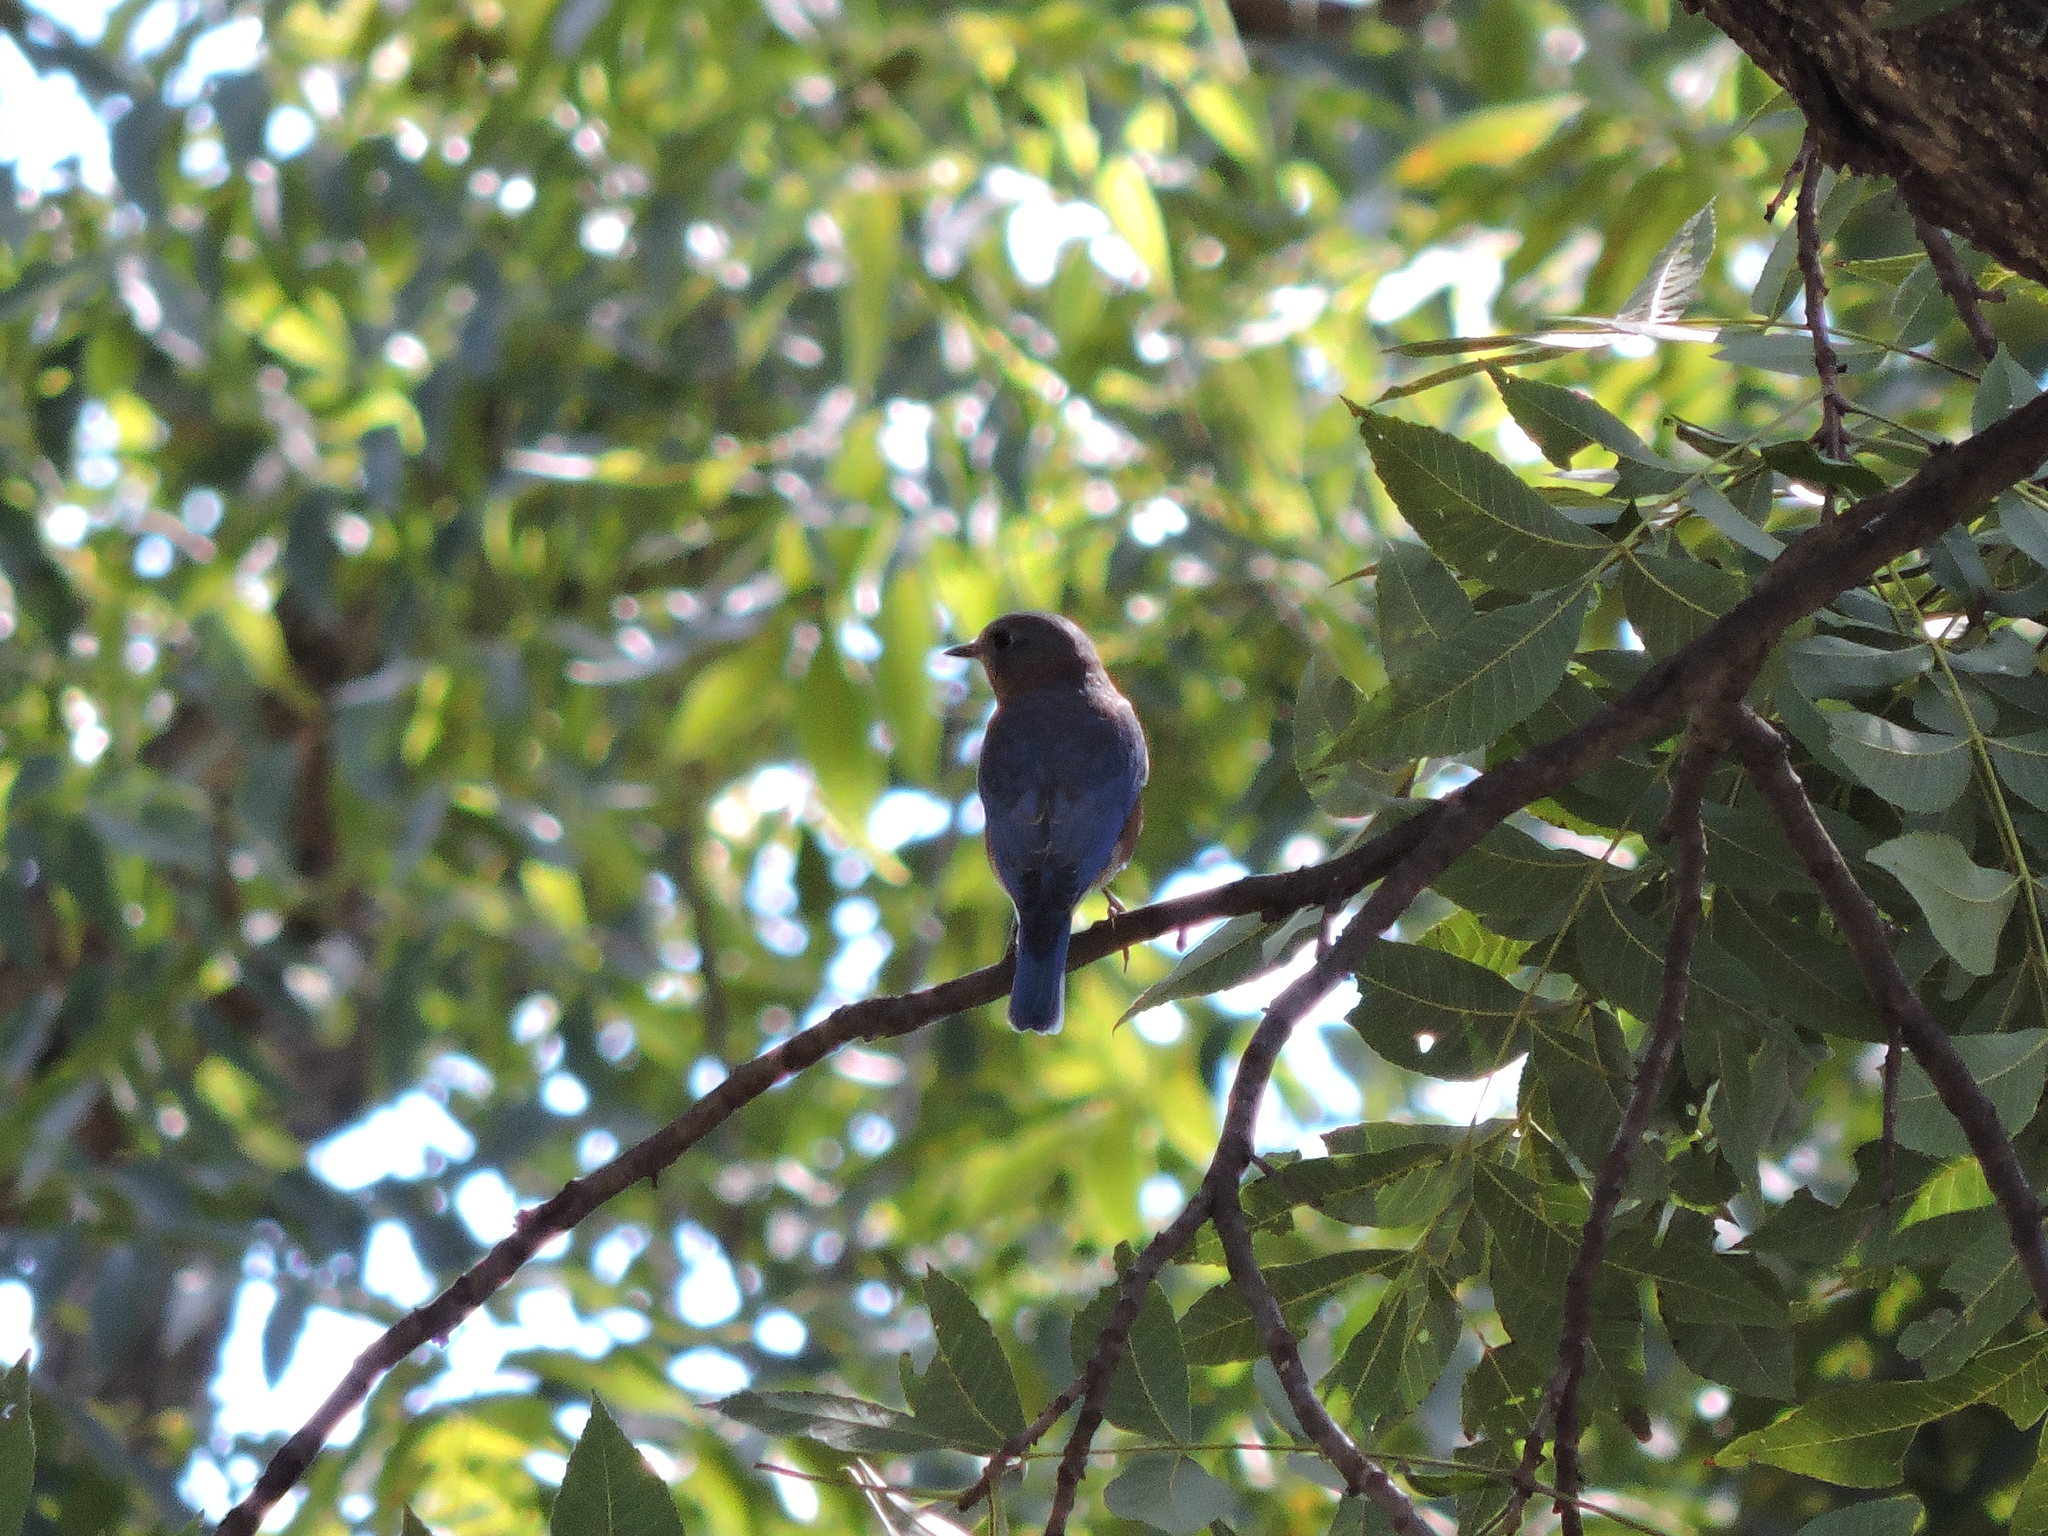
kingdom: Animalia
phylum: Chordata
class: Aves
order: Passeriformes
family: Turdidae
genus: Sialia
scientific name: Sialia sialis
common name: Eastern bluebird
